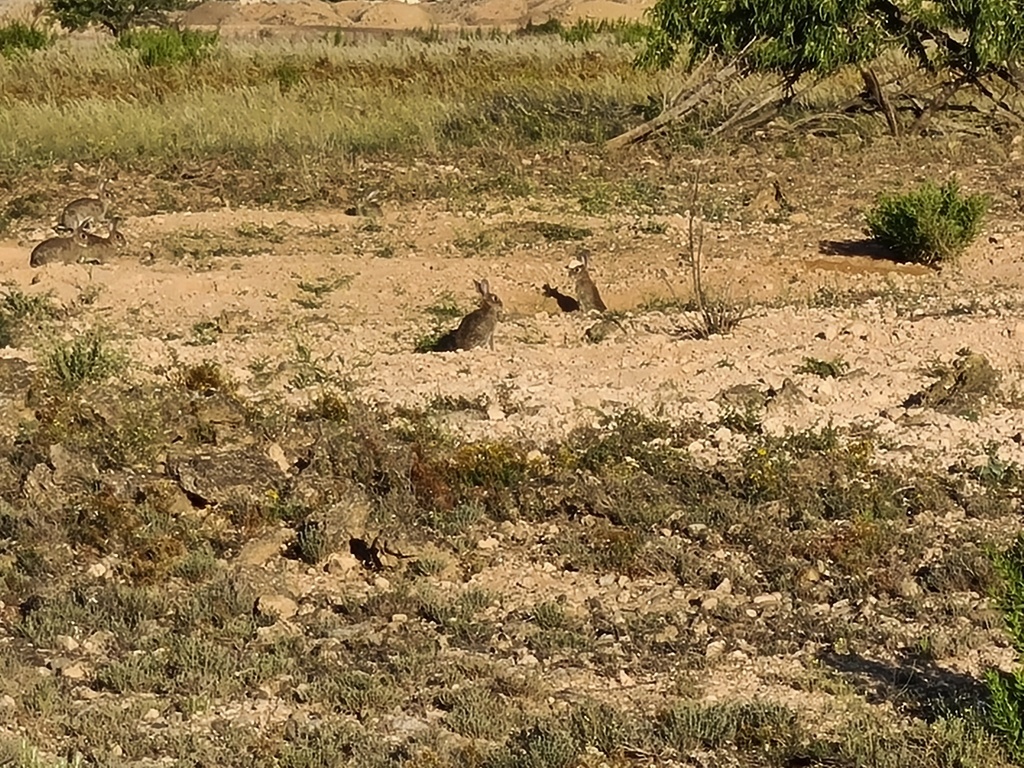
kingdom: Animalia
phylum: Chordata
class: Mammalia
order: Lagomorpha
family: Leporidae
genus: Oryctolagus
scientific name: Oryctolagus cuniculus
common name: European rabbit
